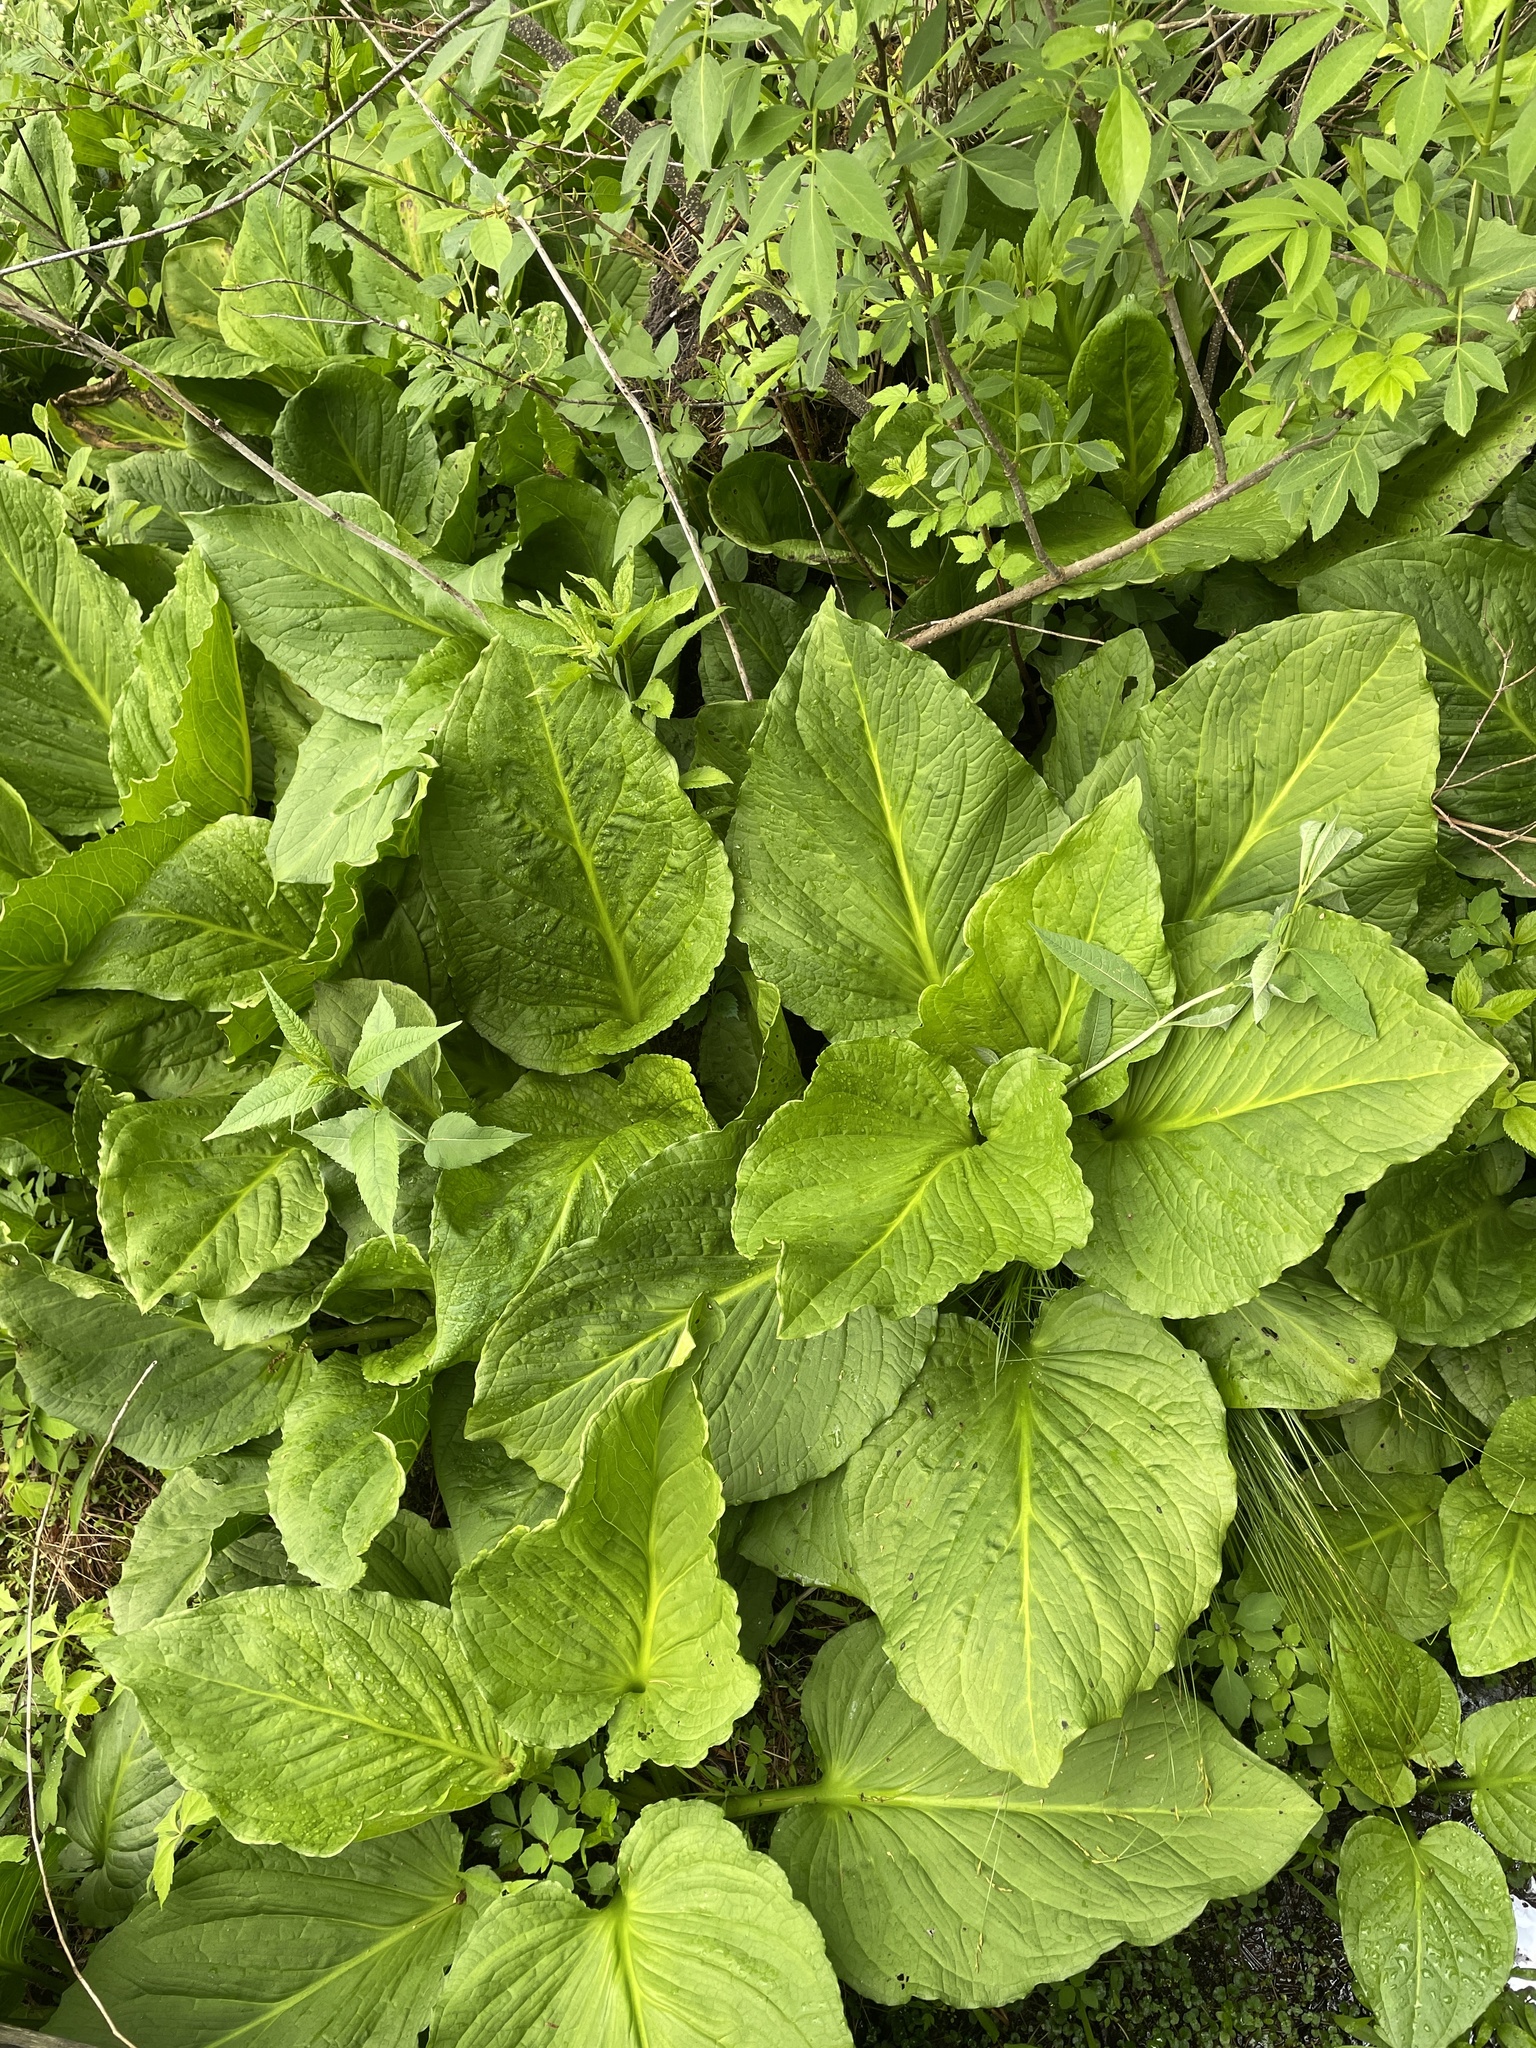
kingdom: Plantae
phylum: Tracheophyta
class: Liliopsida
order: Alismatales
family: Araceae
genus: Symplocarpus
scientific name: Symplocarpus foetidus
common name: Eastern skunk cabbage
